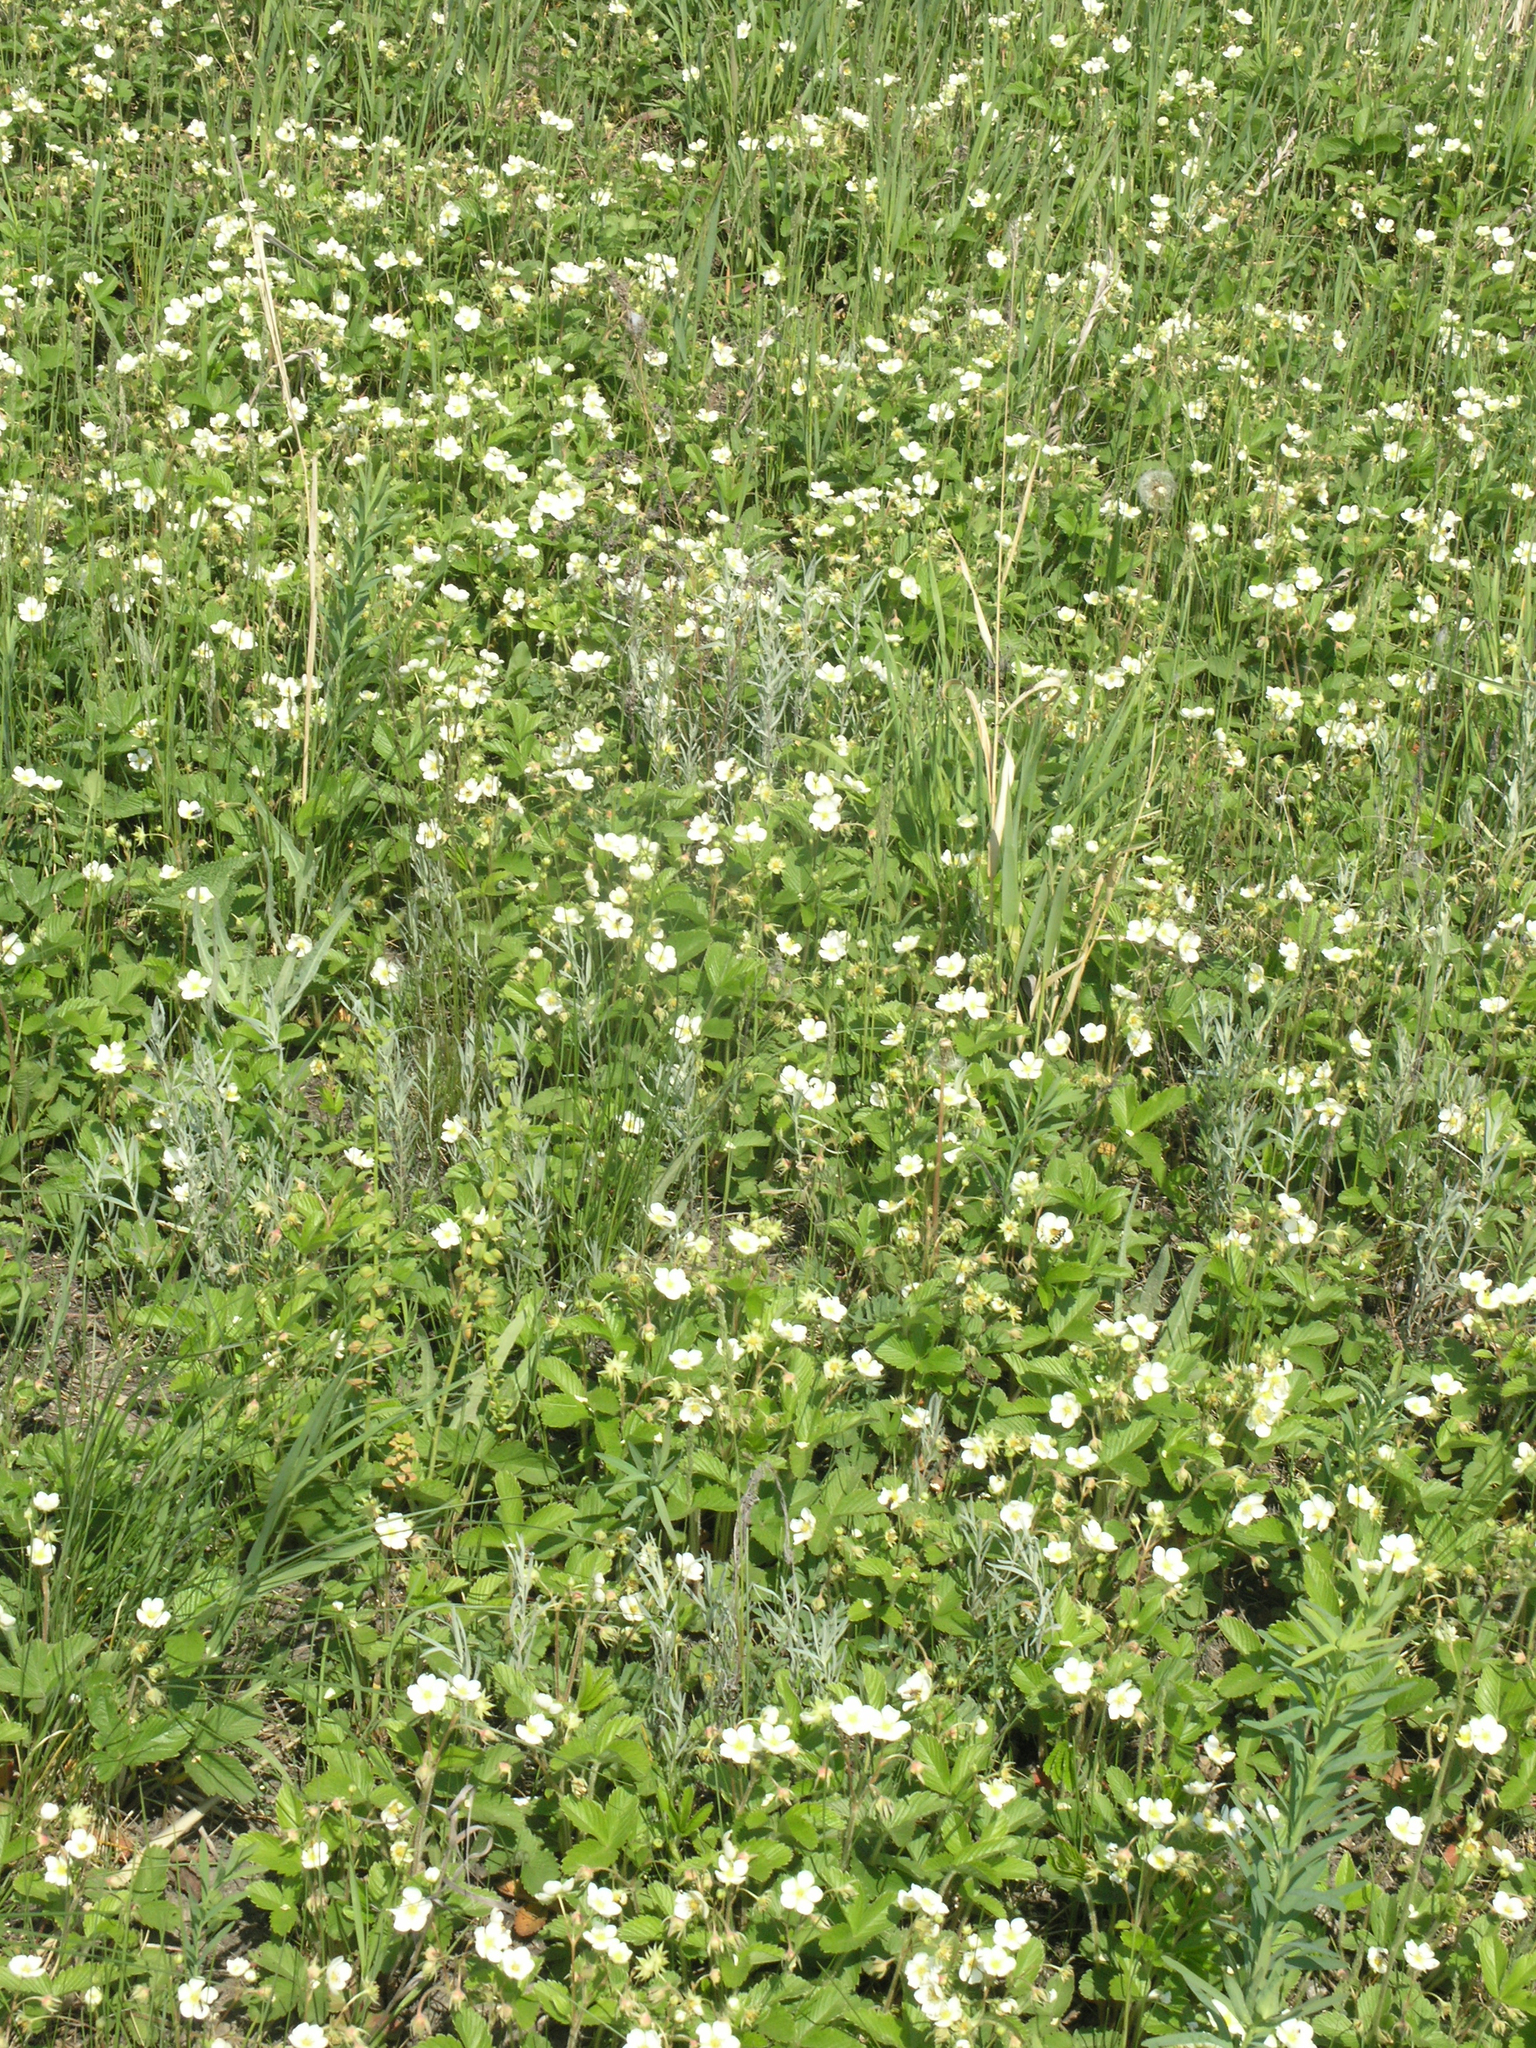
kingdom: Plantae
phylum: Tracheophyta
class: Magnoliopsida
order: Rosales
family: Rosaceae
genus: Fragaria
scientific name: Fragaria viridis
